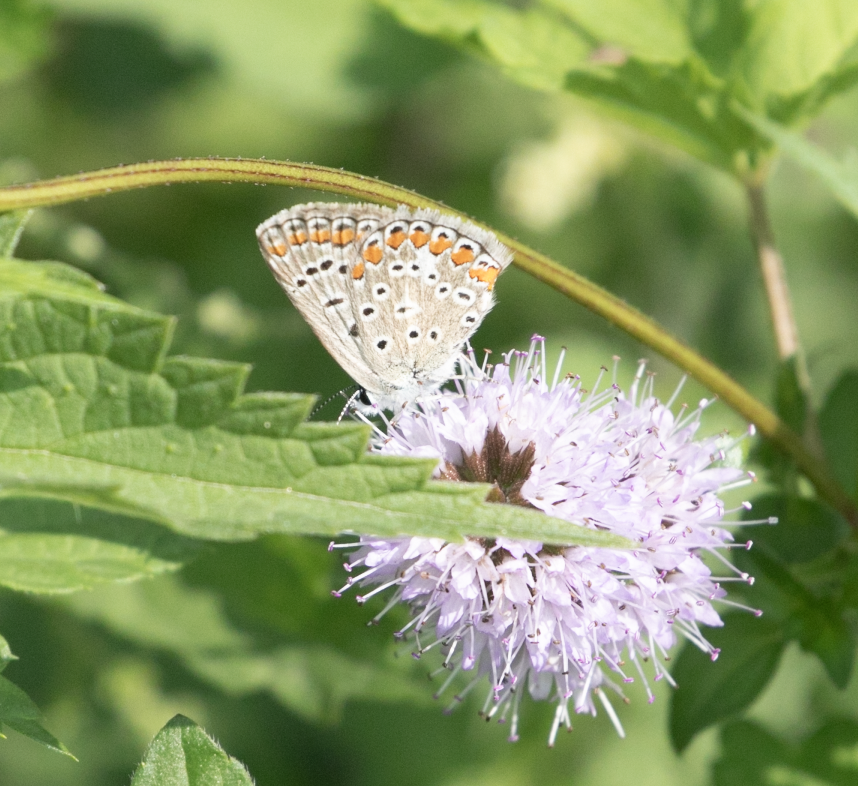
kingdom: Animalia
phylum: Arthropoda
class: Insecta
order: Lepidoptera
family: Lycaenidae
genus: Polyommatus
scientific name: Polyommatus icarus
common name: Common blue
